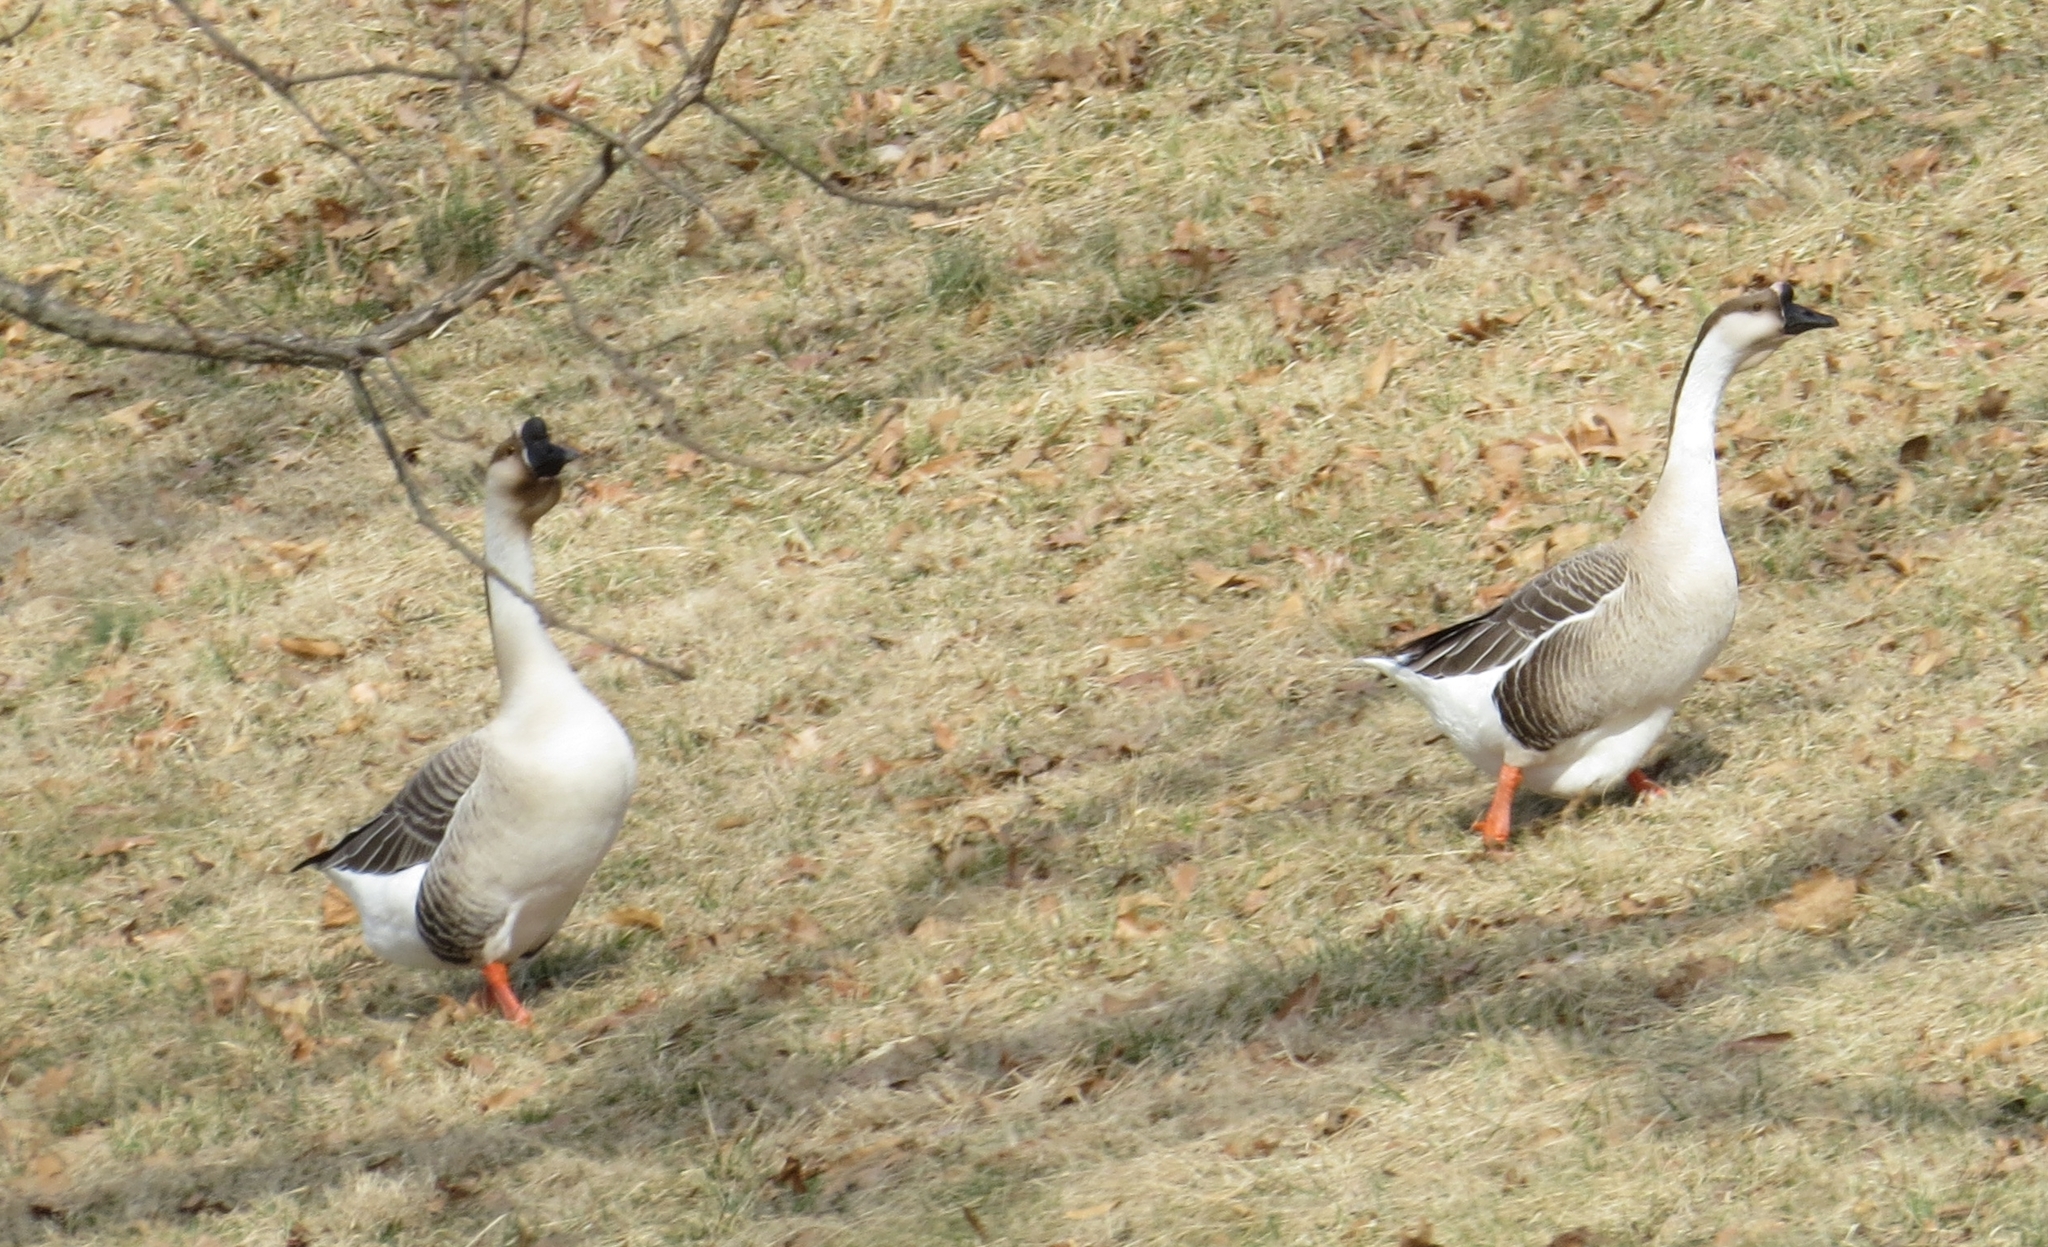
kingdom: Animalia
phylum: Chordata
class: Aves
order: Anseriformes
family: Anatidae
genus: Anser
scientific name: Anser cygnoides
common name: Swan goose
